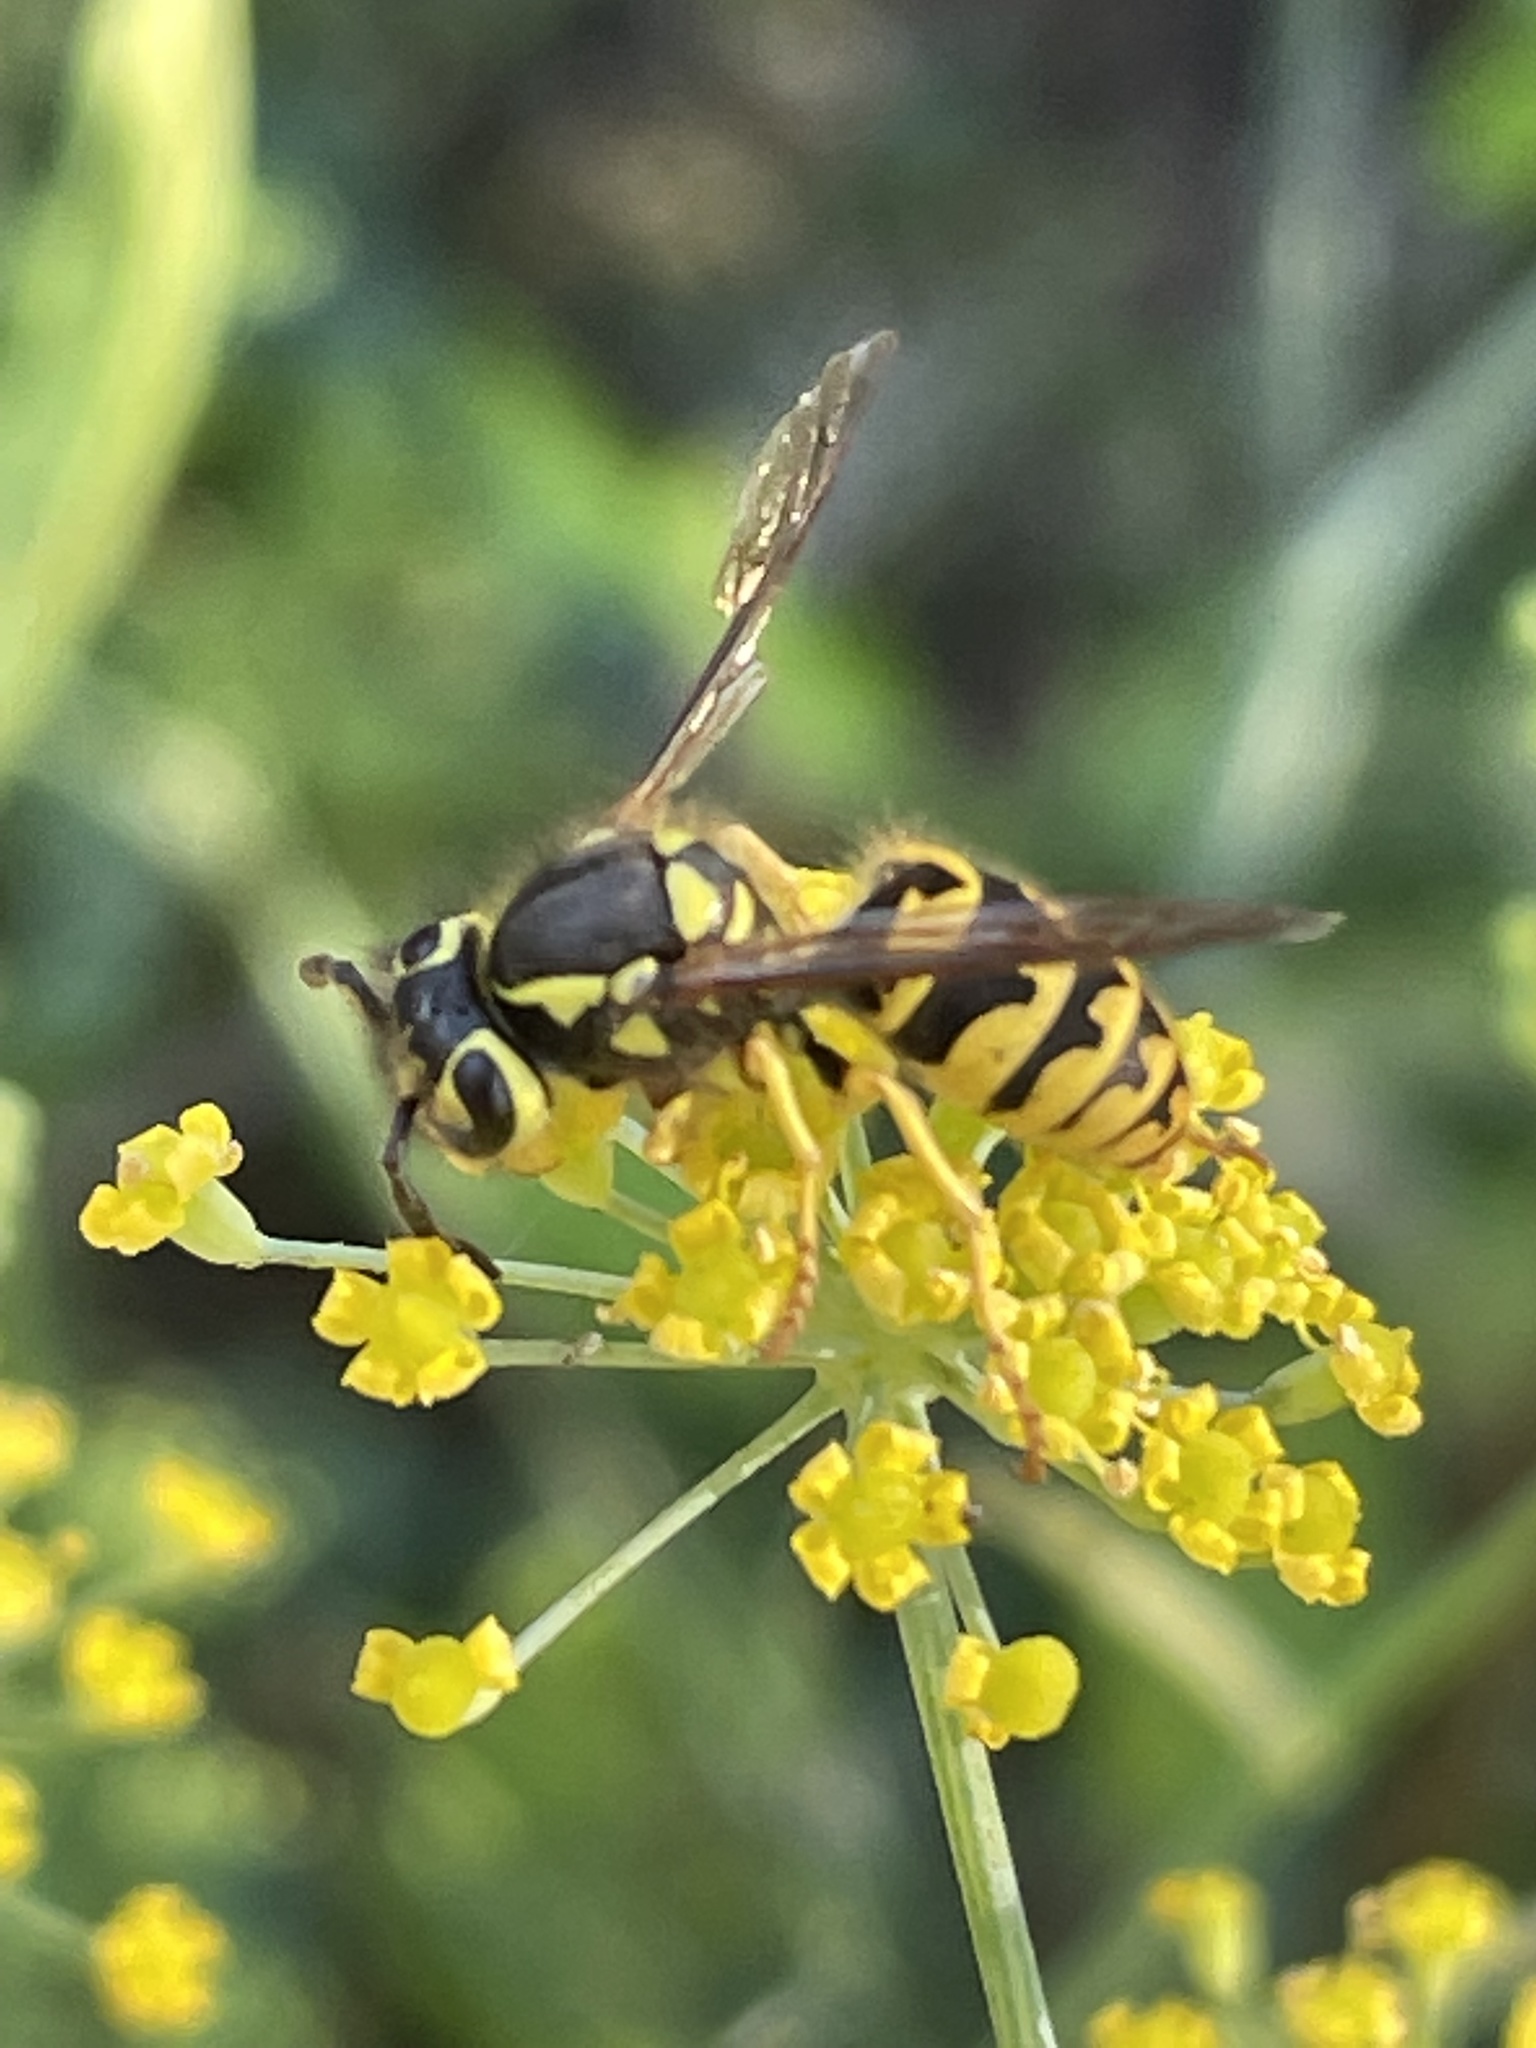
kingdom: Animalia
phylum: Arthropoda
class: Insecta
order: Hymenoptera
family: Vespidae
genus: Vespula
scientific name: Vespula pensylvanica
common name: Western yellowjacket
